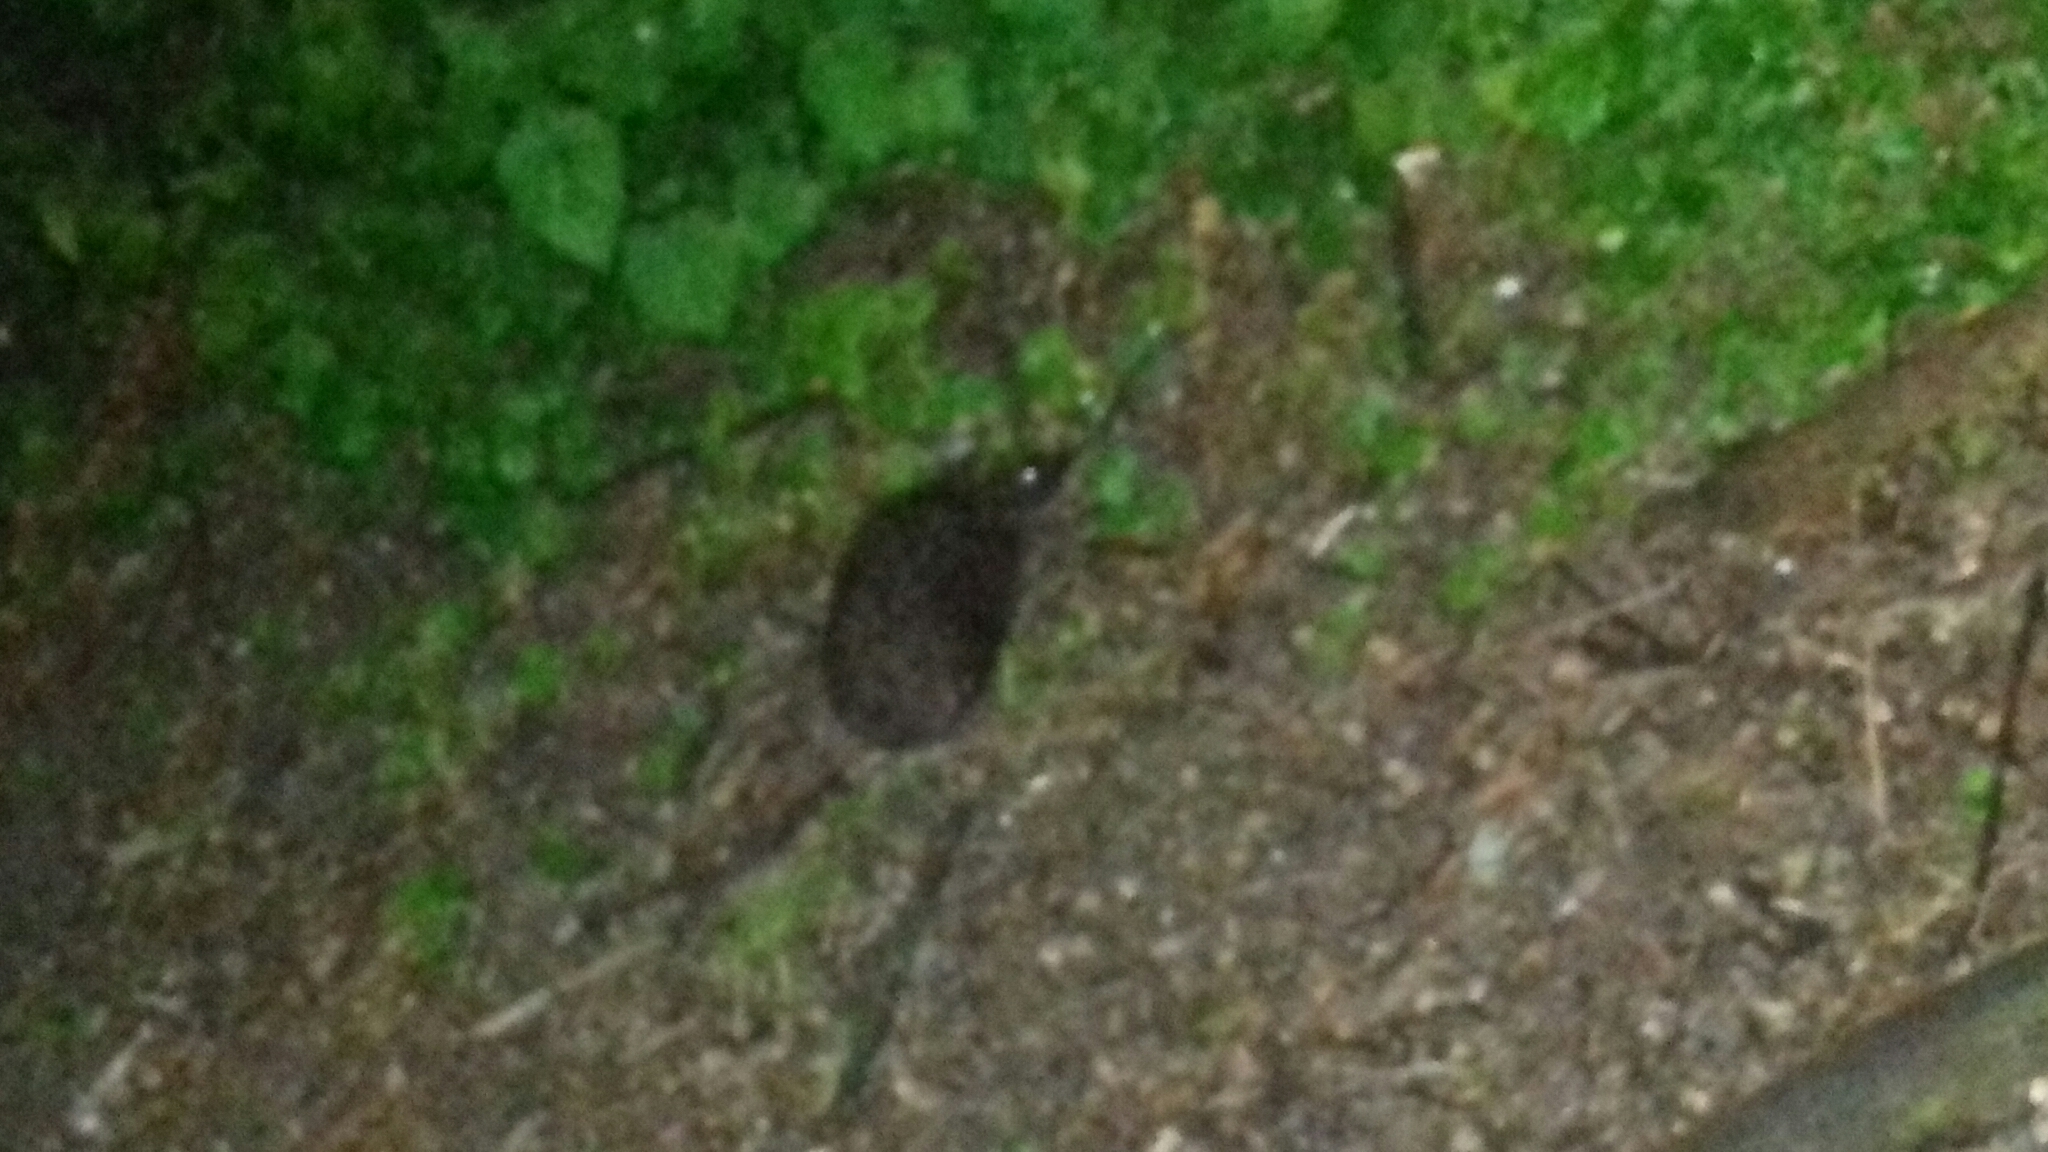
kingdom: Animalia
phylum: Chordata
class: Mammalia
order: Erinaceomorpha
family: Erinaceidae
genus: Erinaceus
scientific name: Erinaceus europaeus
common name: West european hedgehog
